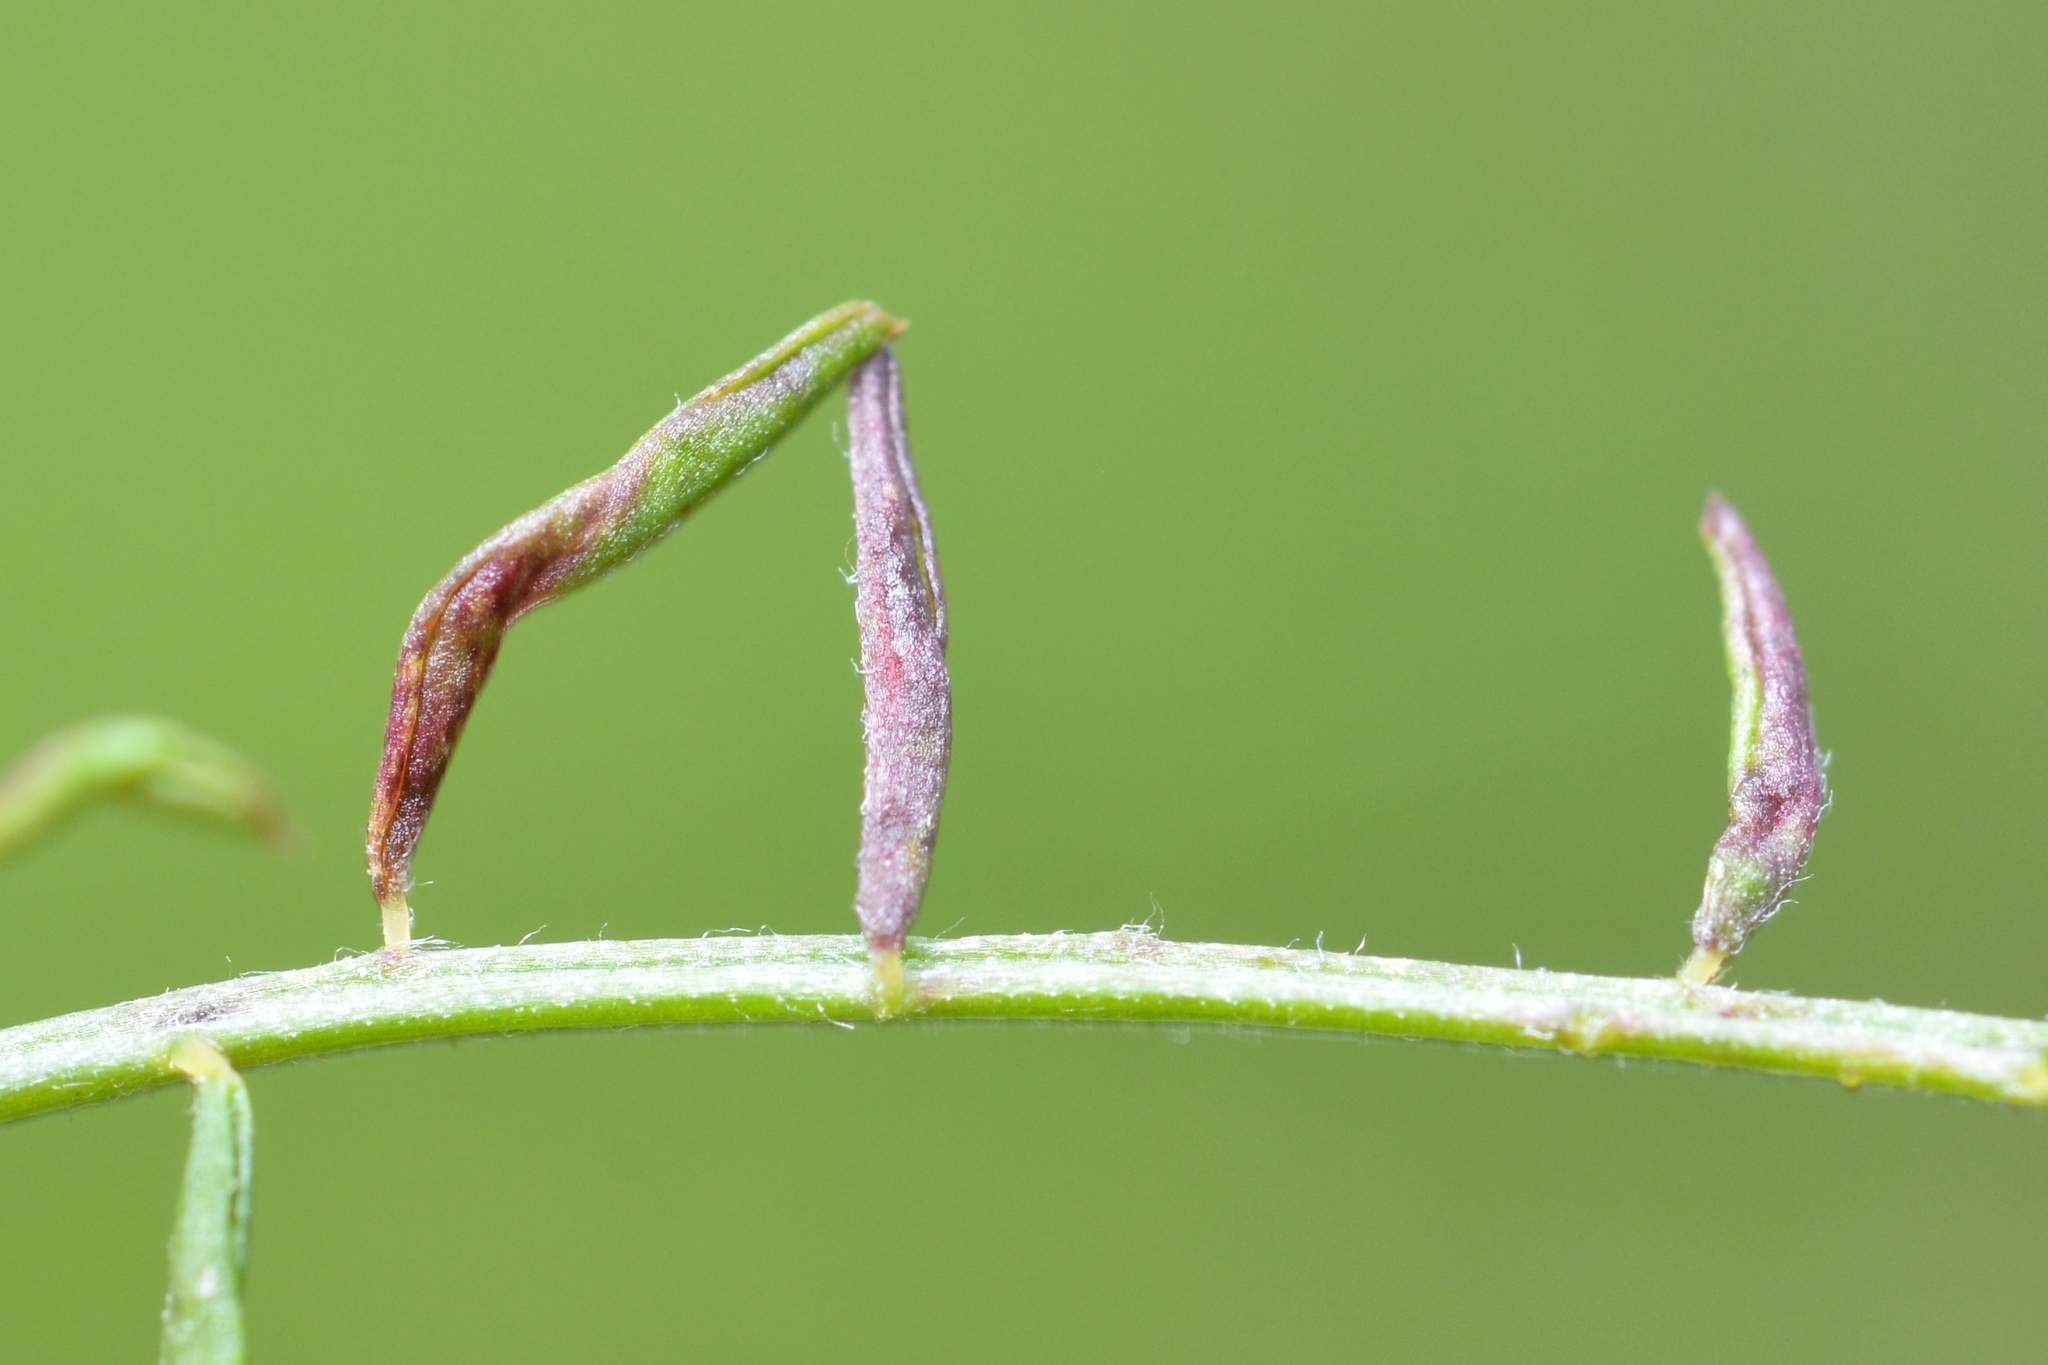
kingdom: Animalia
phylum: Arthropoda
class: Arachnida
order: Trombidiformes
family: Eriophyidae
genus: Aceria
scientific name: Aceria trifolii
